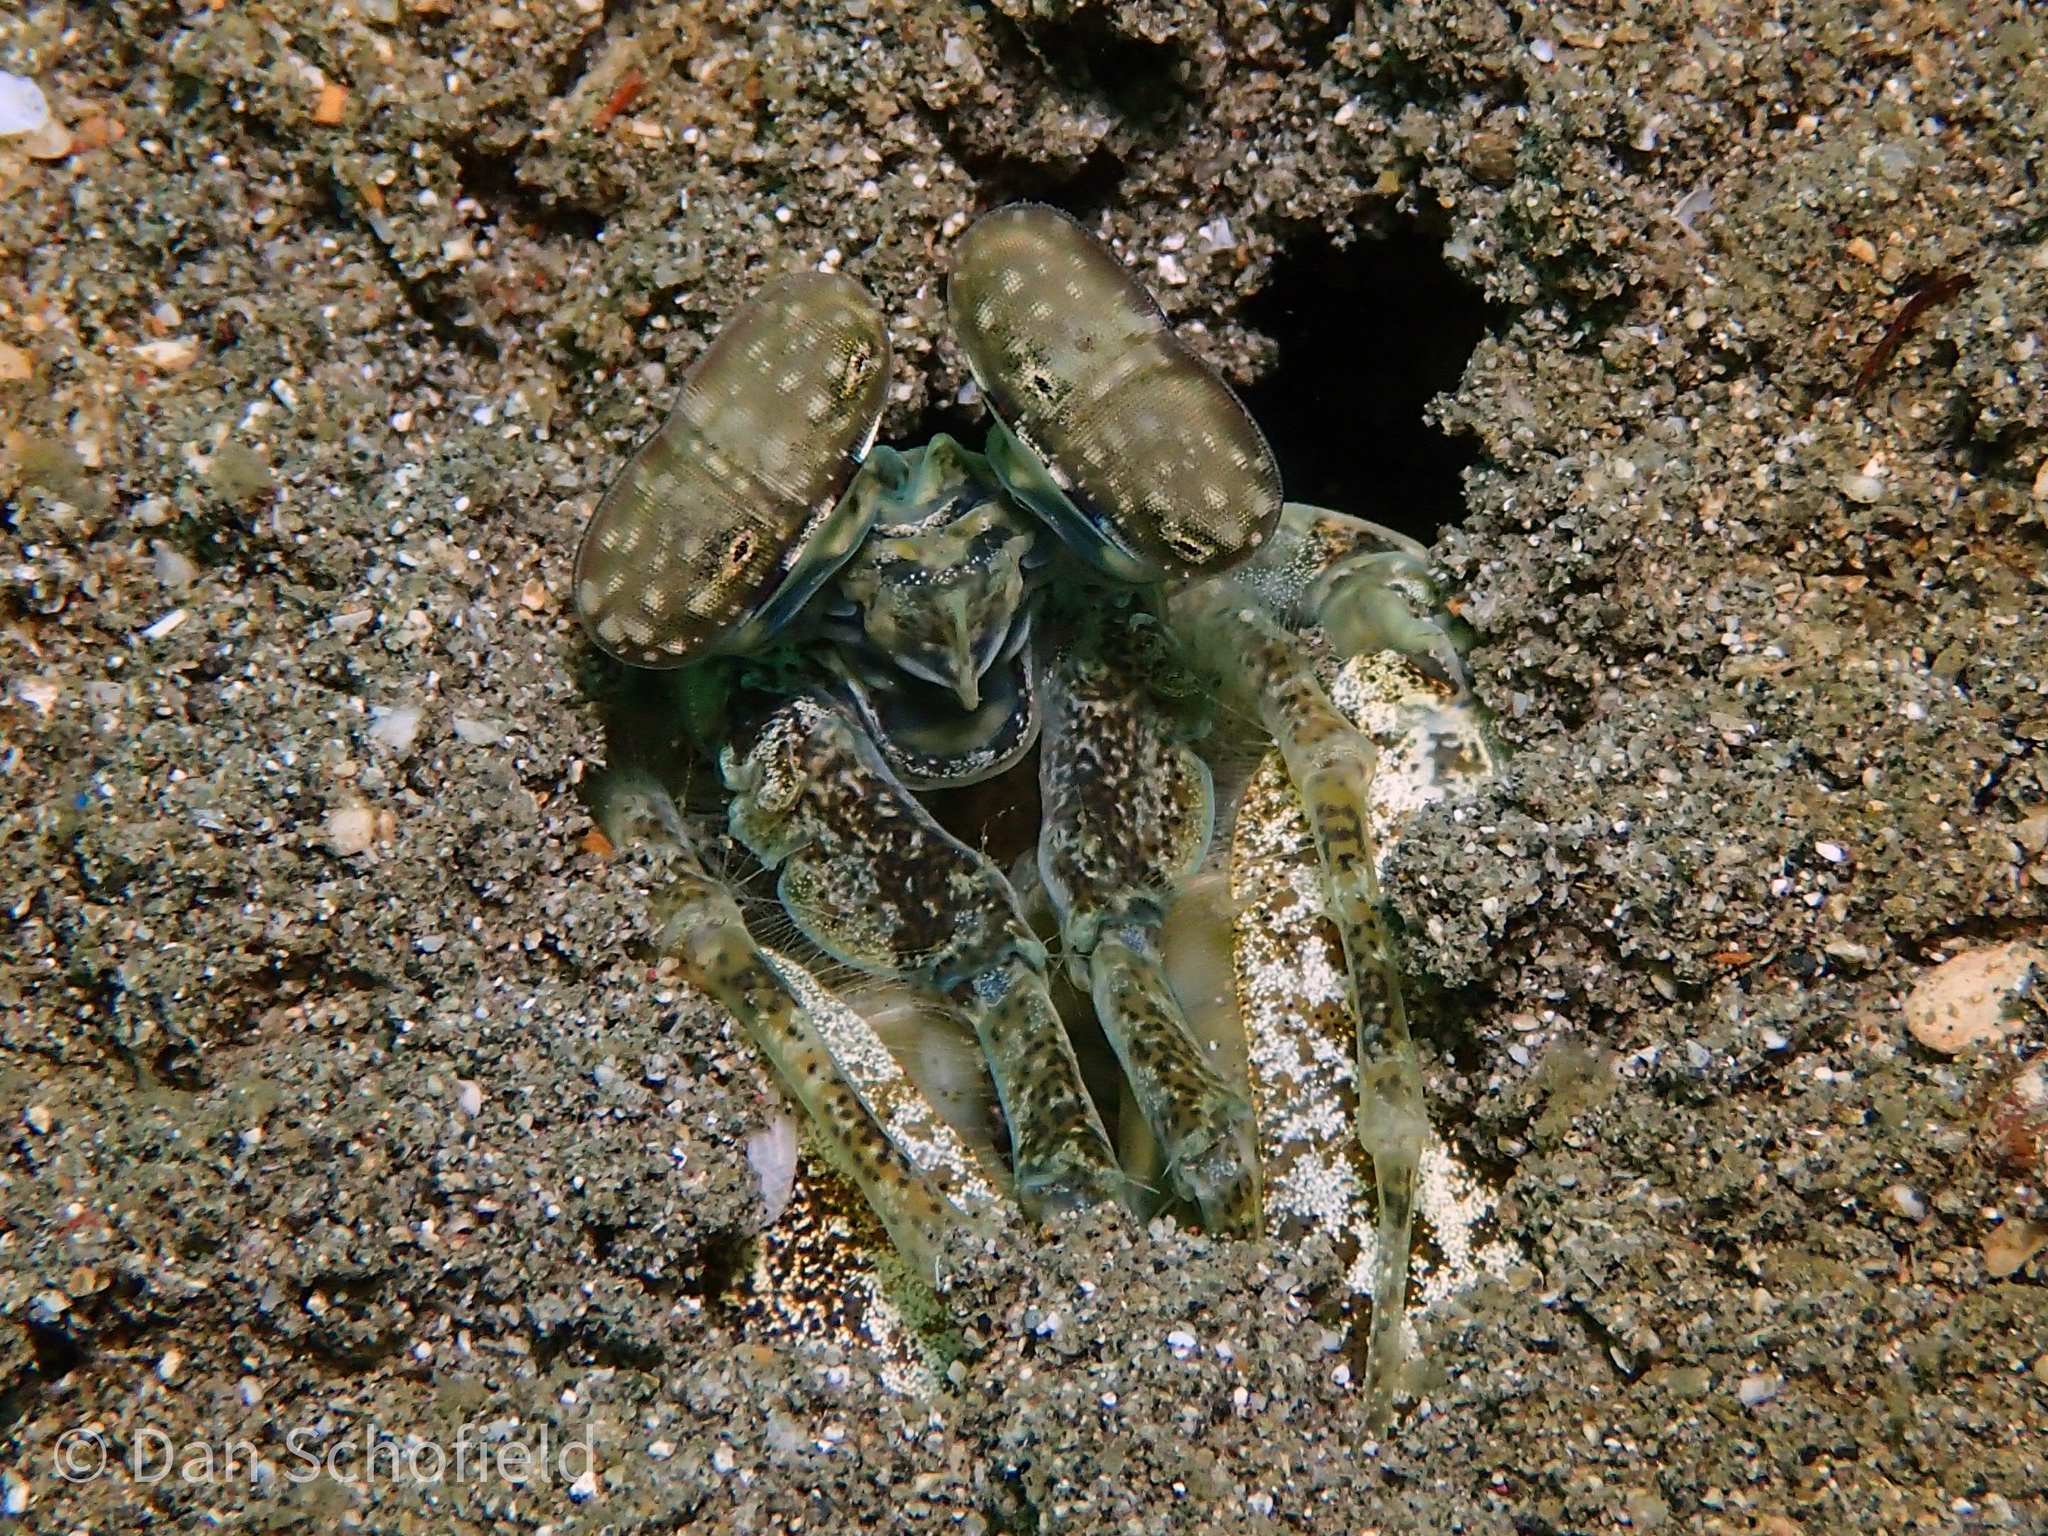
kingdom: Animalia
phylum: Arthropoda
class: Malacostraca
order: Stomatopoda
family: Lysiosquillidae
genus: Lysiosquilla
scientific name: Lysiosquilla maculata
